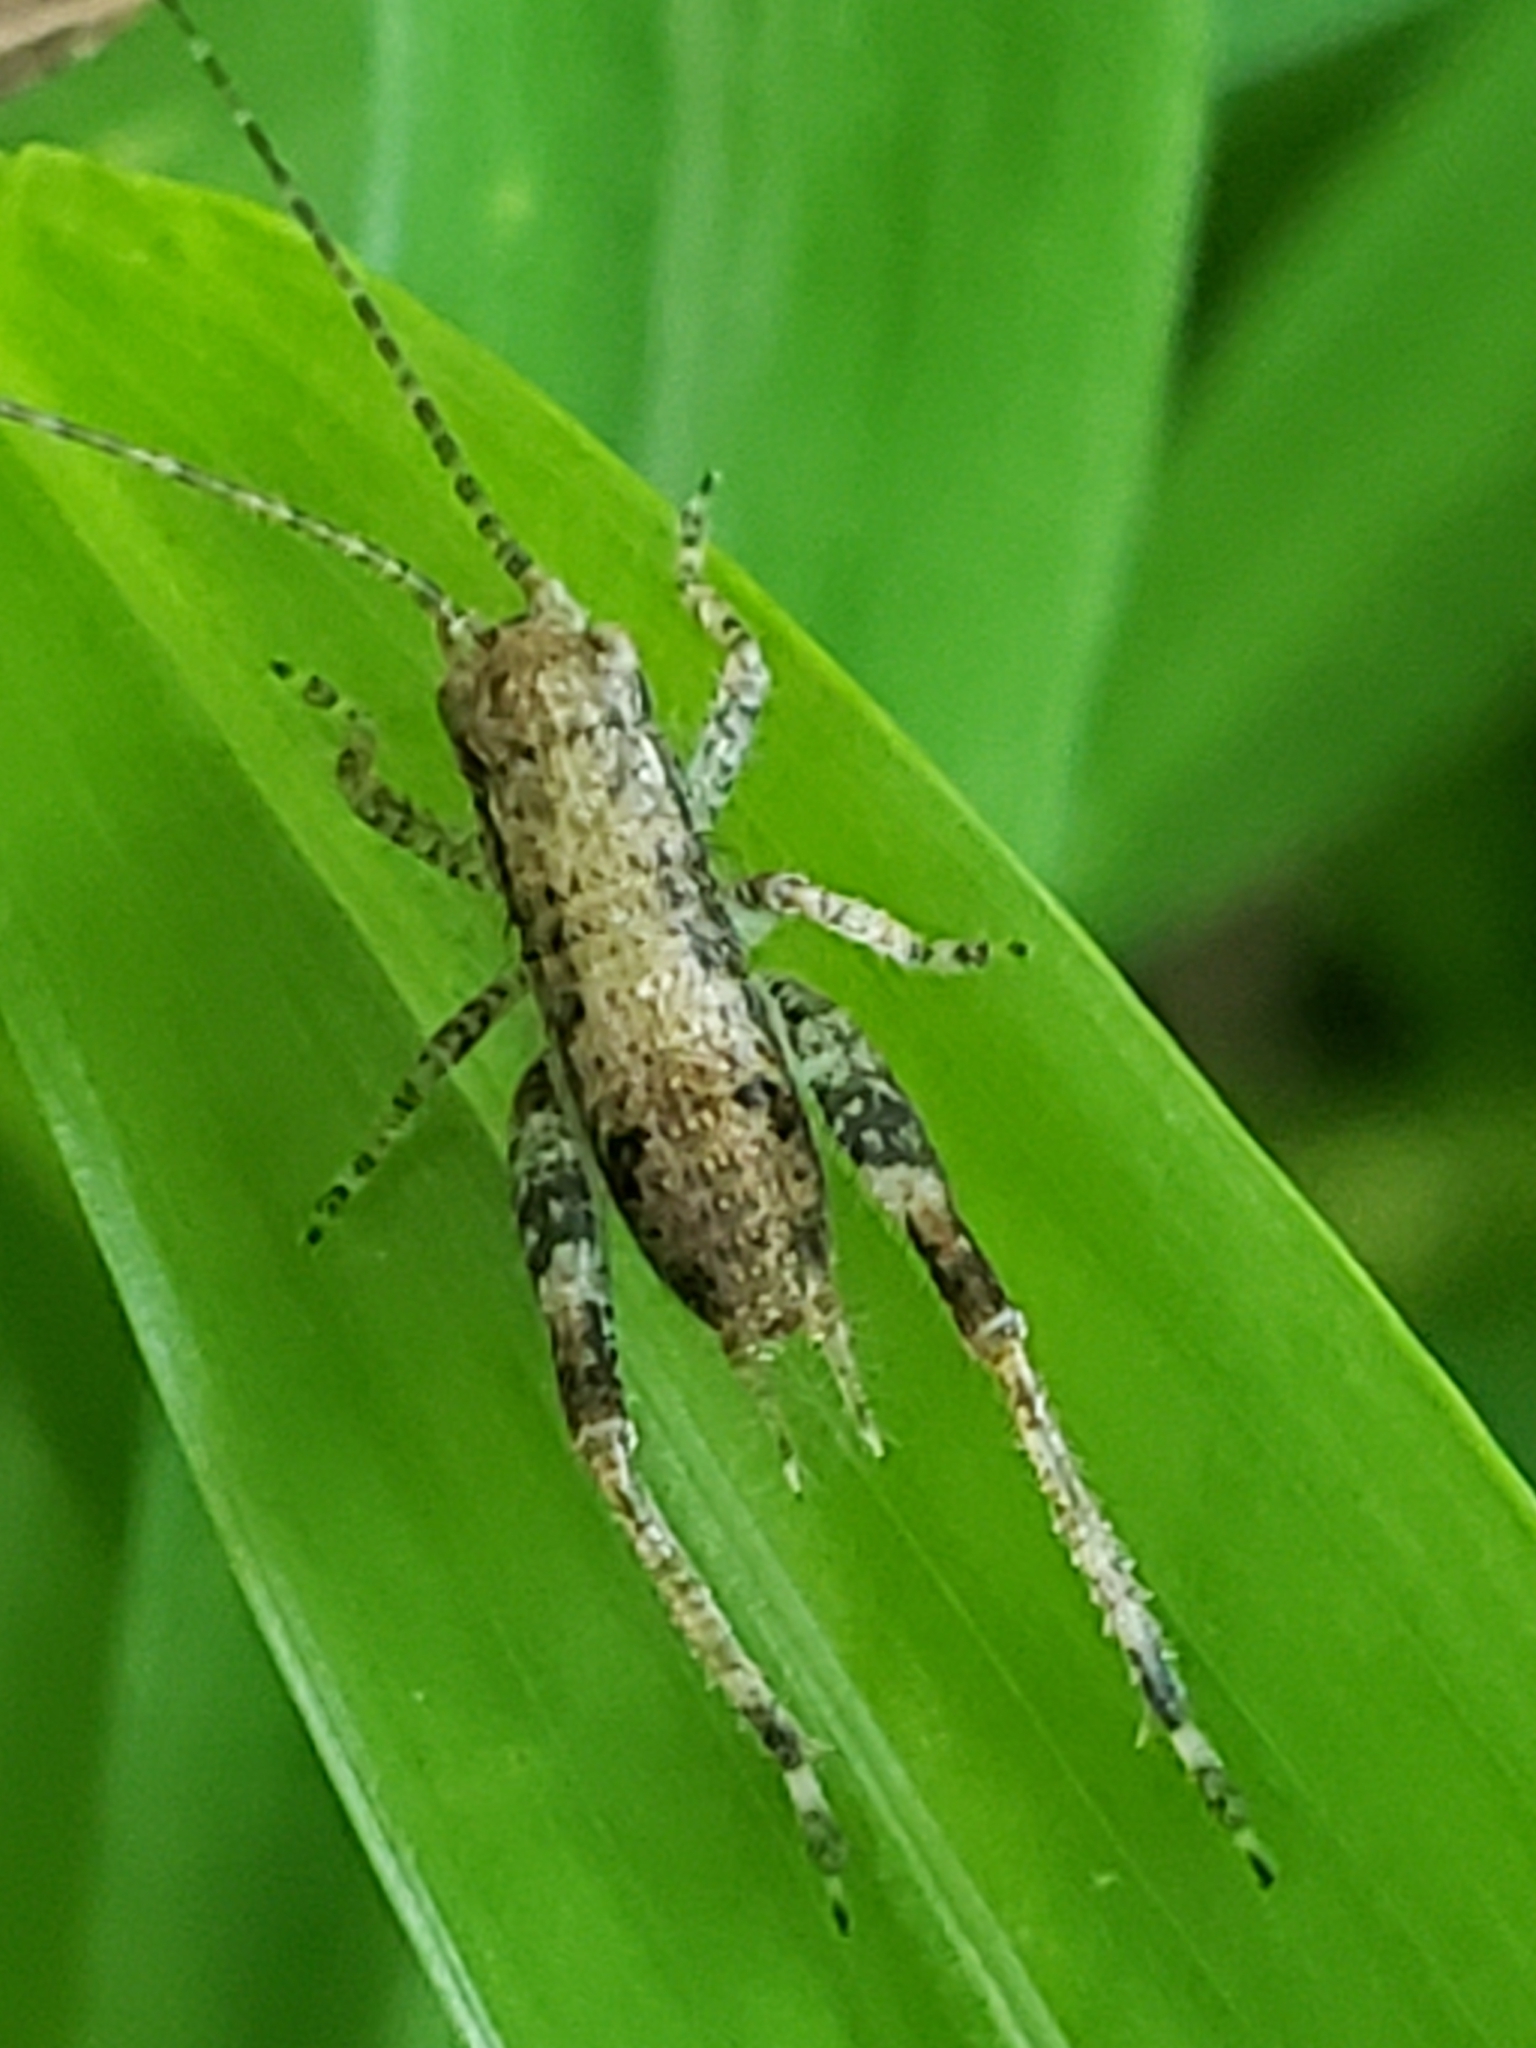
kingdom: Animalia
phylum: Arthropoda
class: Insecta
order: Orthoptera
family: Gryllidae
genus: Hapithus
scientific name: Hapithus saltator
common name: Jumping bush cricket
